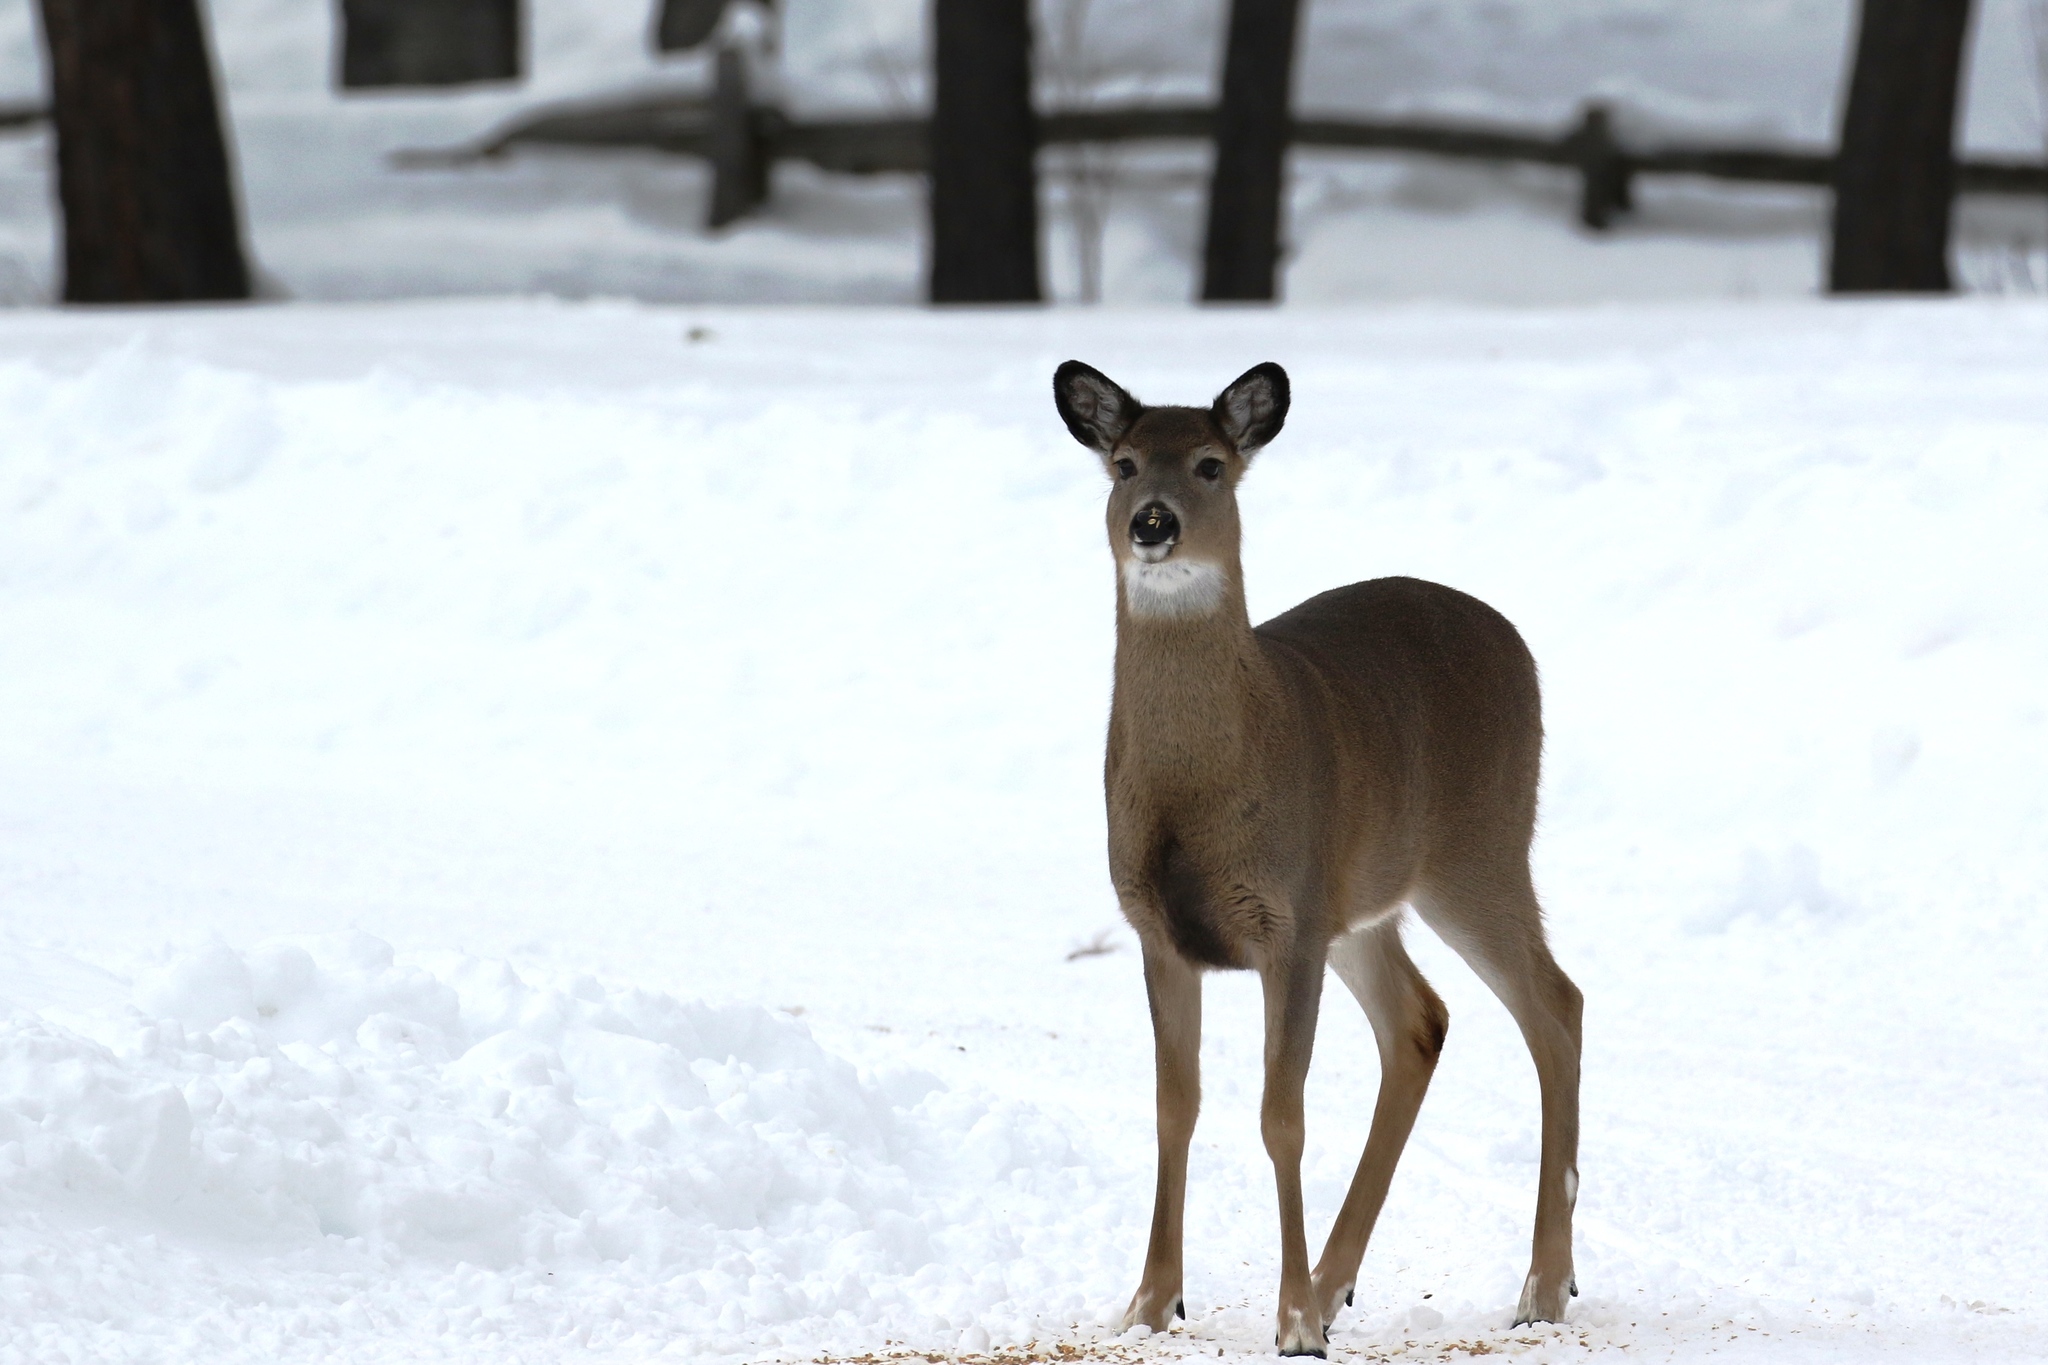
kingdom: Animalia
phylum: Chordata
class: Mammalia
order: Artiodactyla
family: Cervidae
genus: Odocoileus
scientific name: Odocoileus virginianus
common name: White-tailed deer
